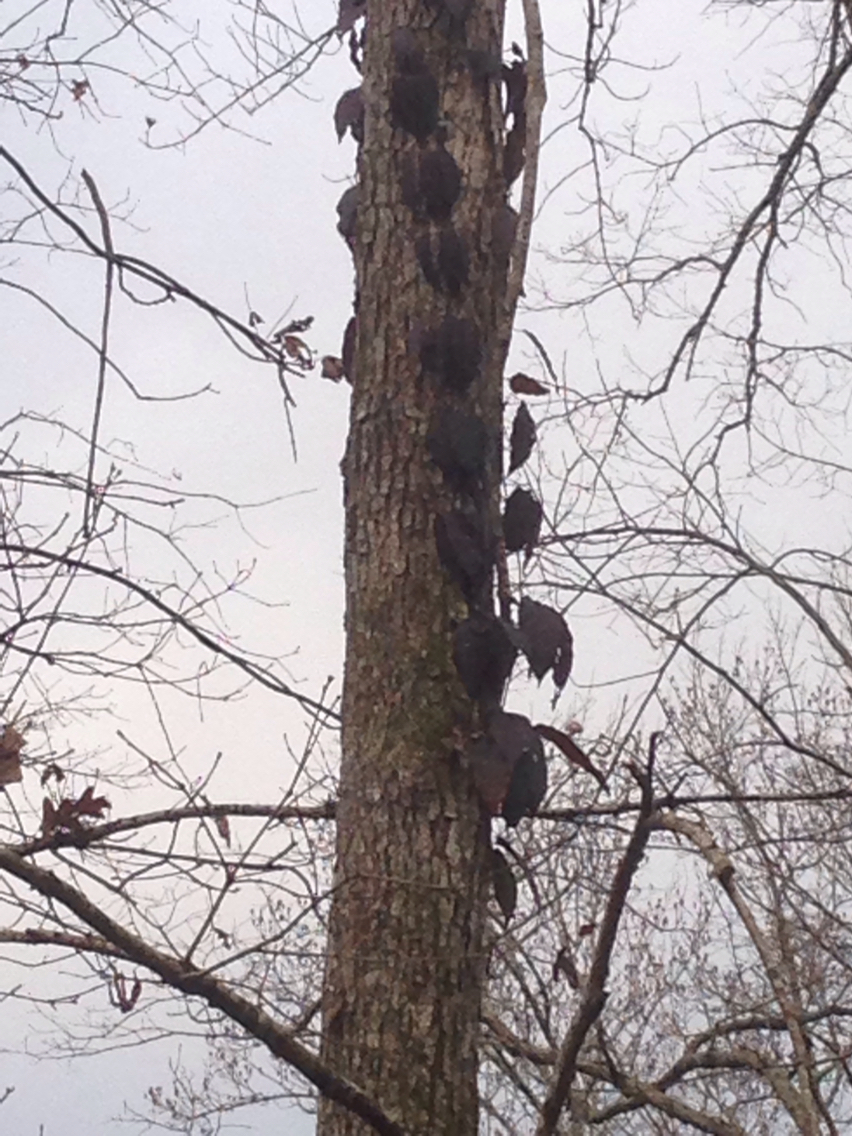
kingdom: Plantae
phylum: Tracheophyta
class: Magnoliopsida
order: Lamiales
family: Bignoniaceae
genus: Bignonia
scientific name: Bignonia capreolata
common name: Crossvine
